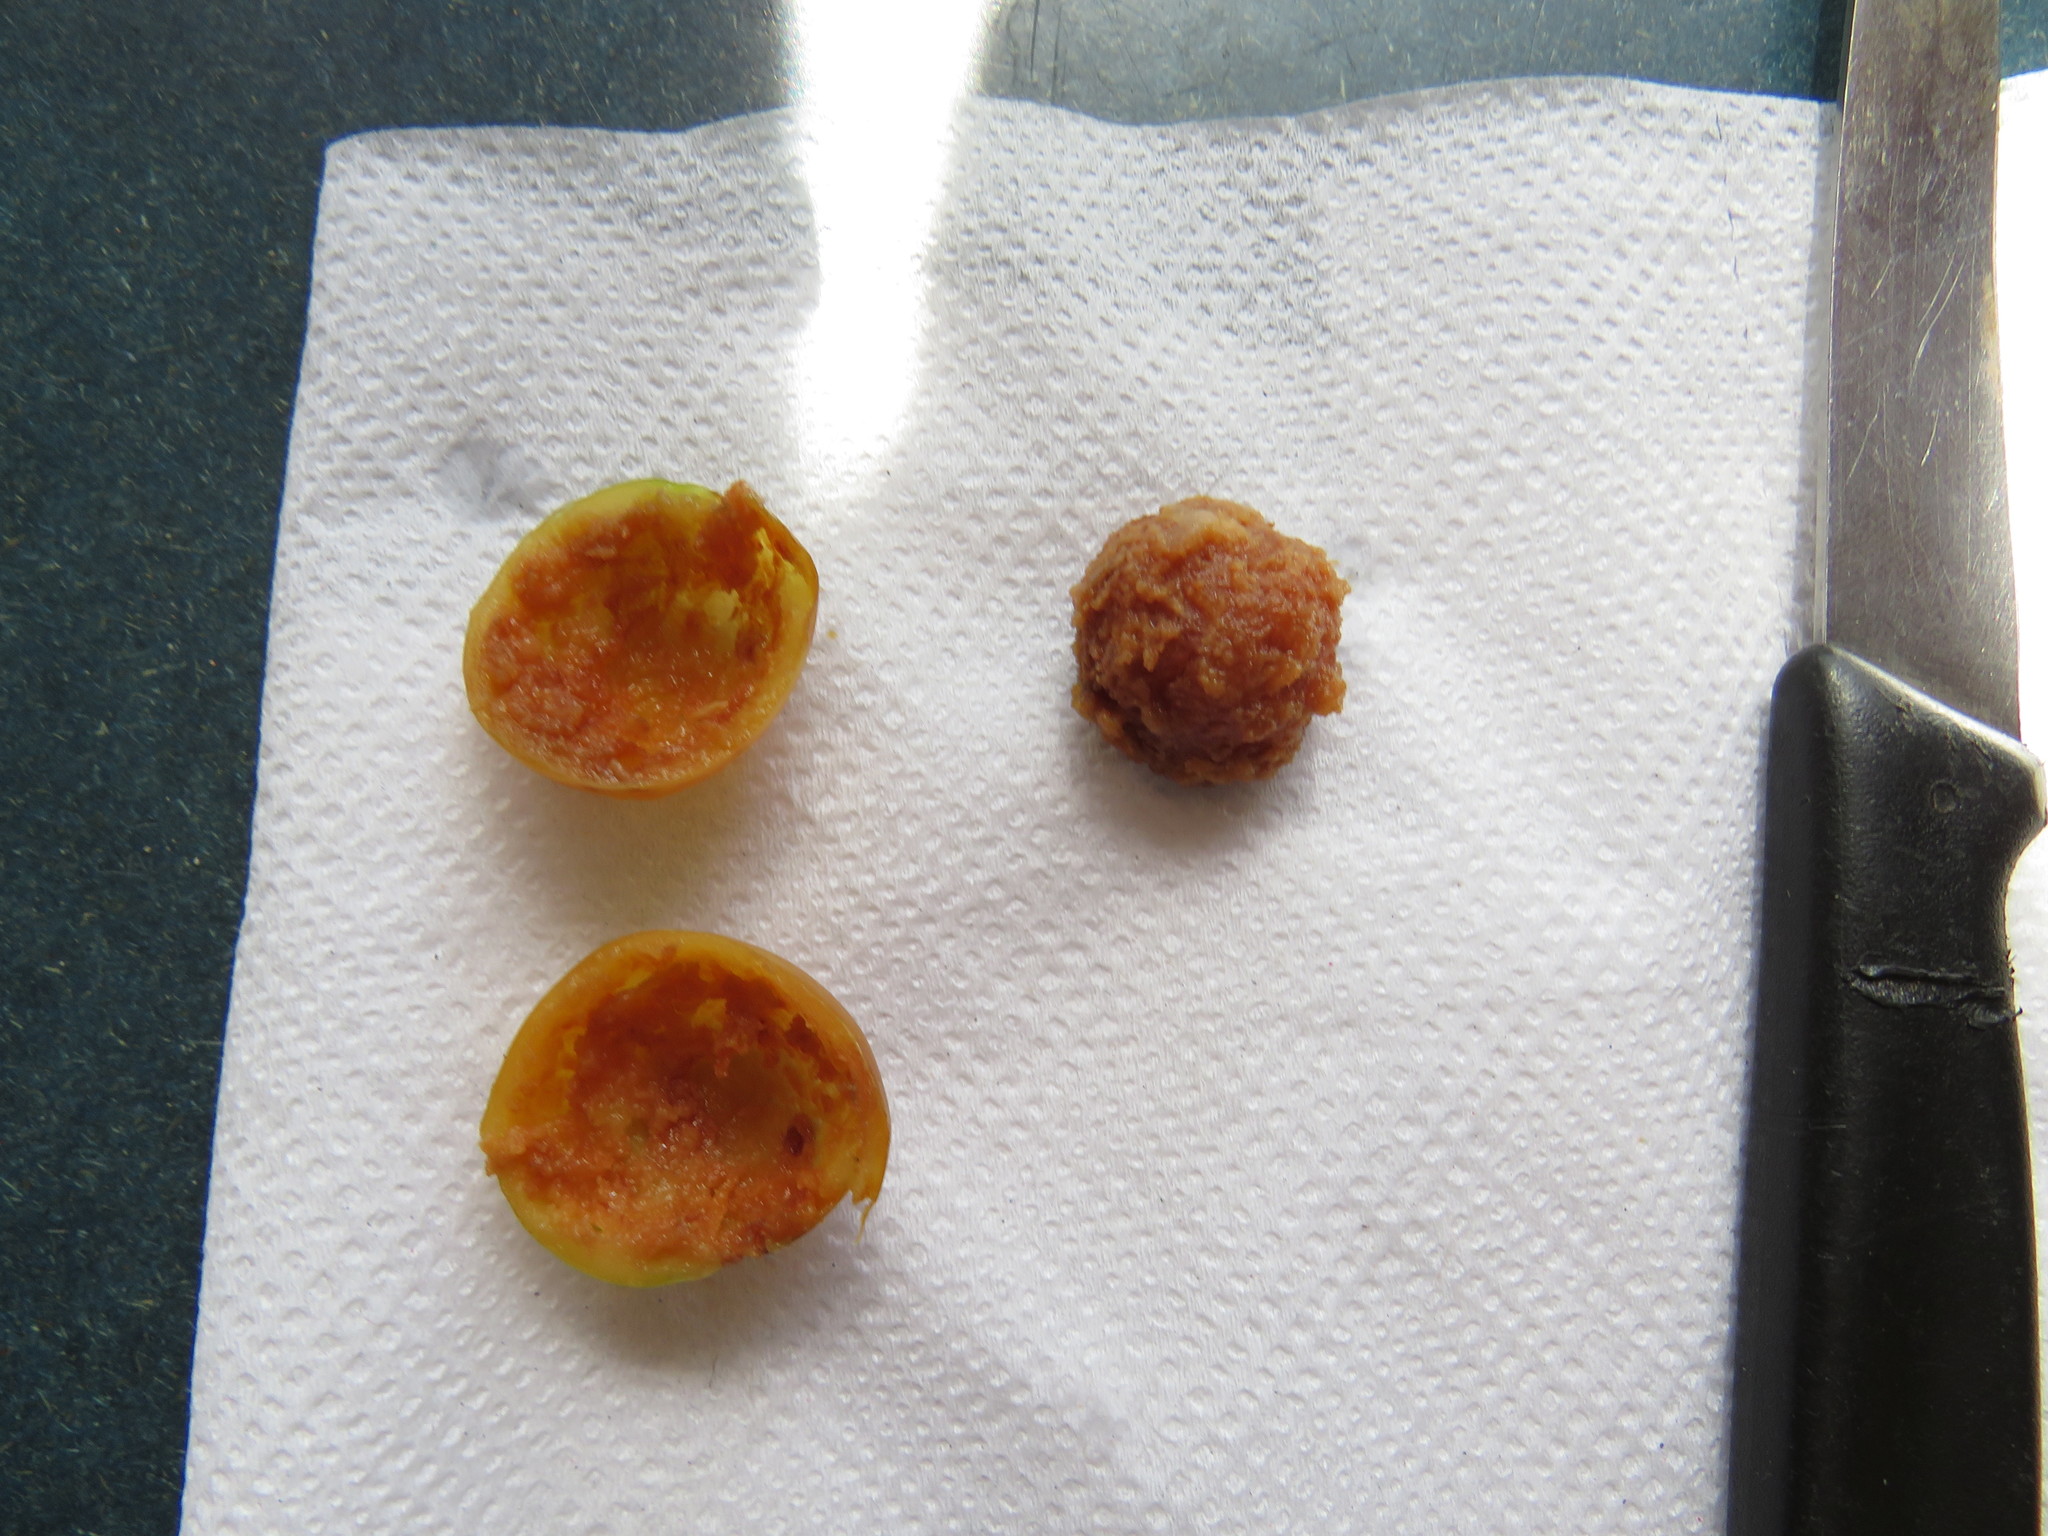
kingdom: Plantae
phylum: Tracheophyta
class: Pinopsida
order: Pinales
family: Podocarpaceae
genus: Afrocarpus
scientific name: Afrocarpus falcatus
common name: Bastard yellowwood
